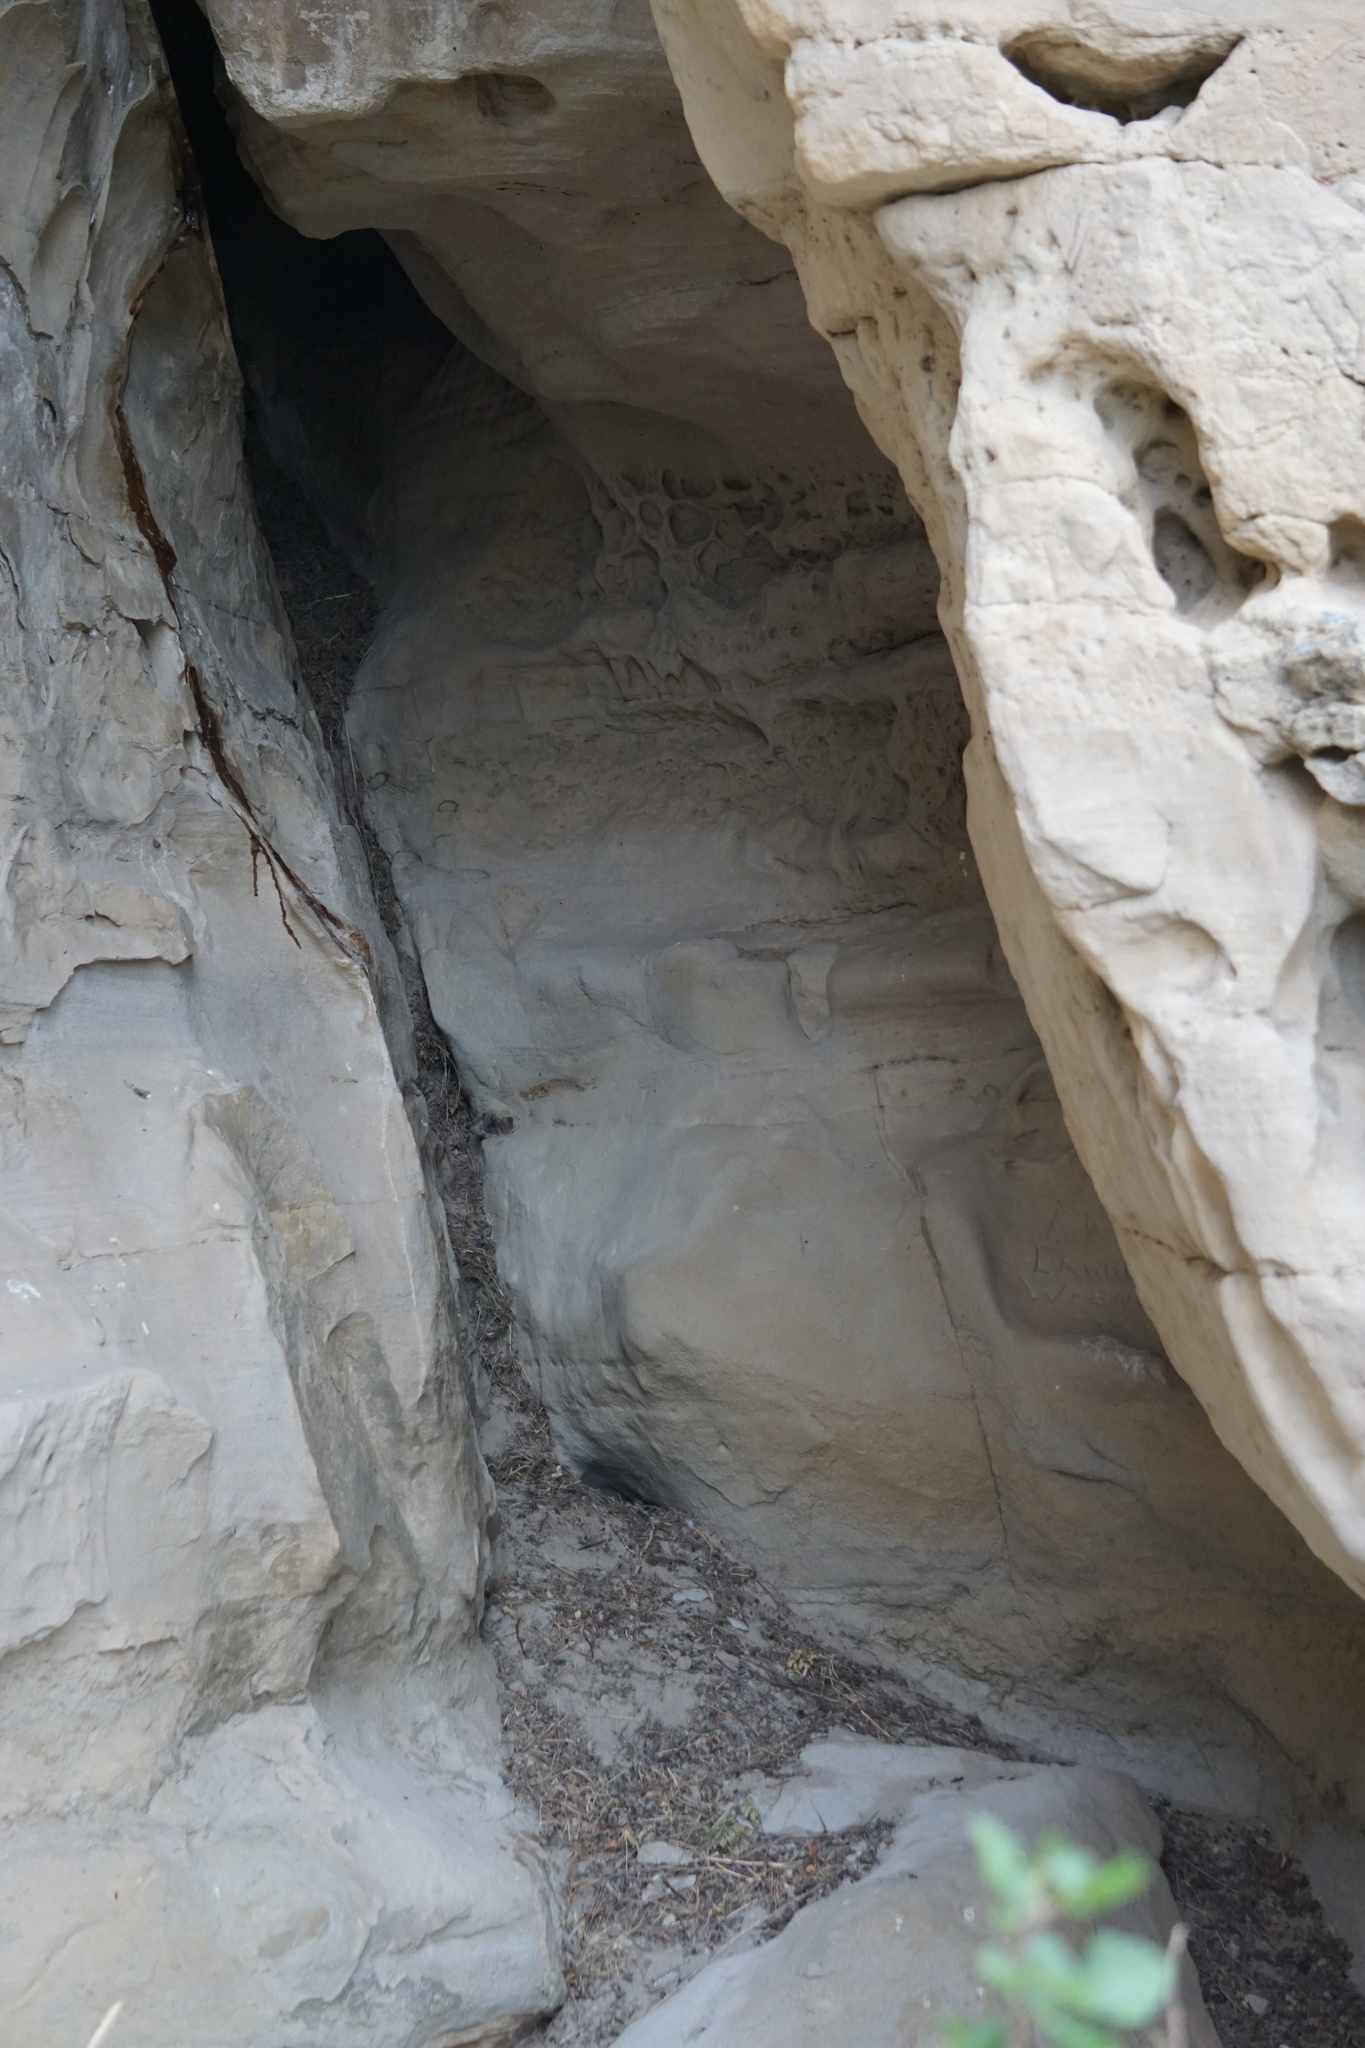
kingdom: Animalia
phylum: Chordata
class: Mammalia
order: Rodentia
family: Cricetidae
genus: Neotoma
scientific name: Neotoma cinerea
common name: Bushy-tailed woodrat
